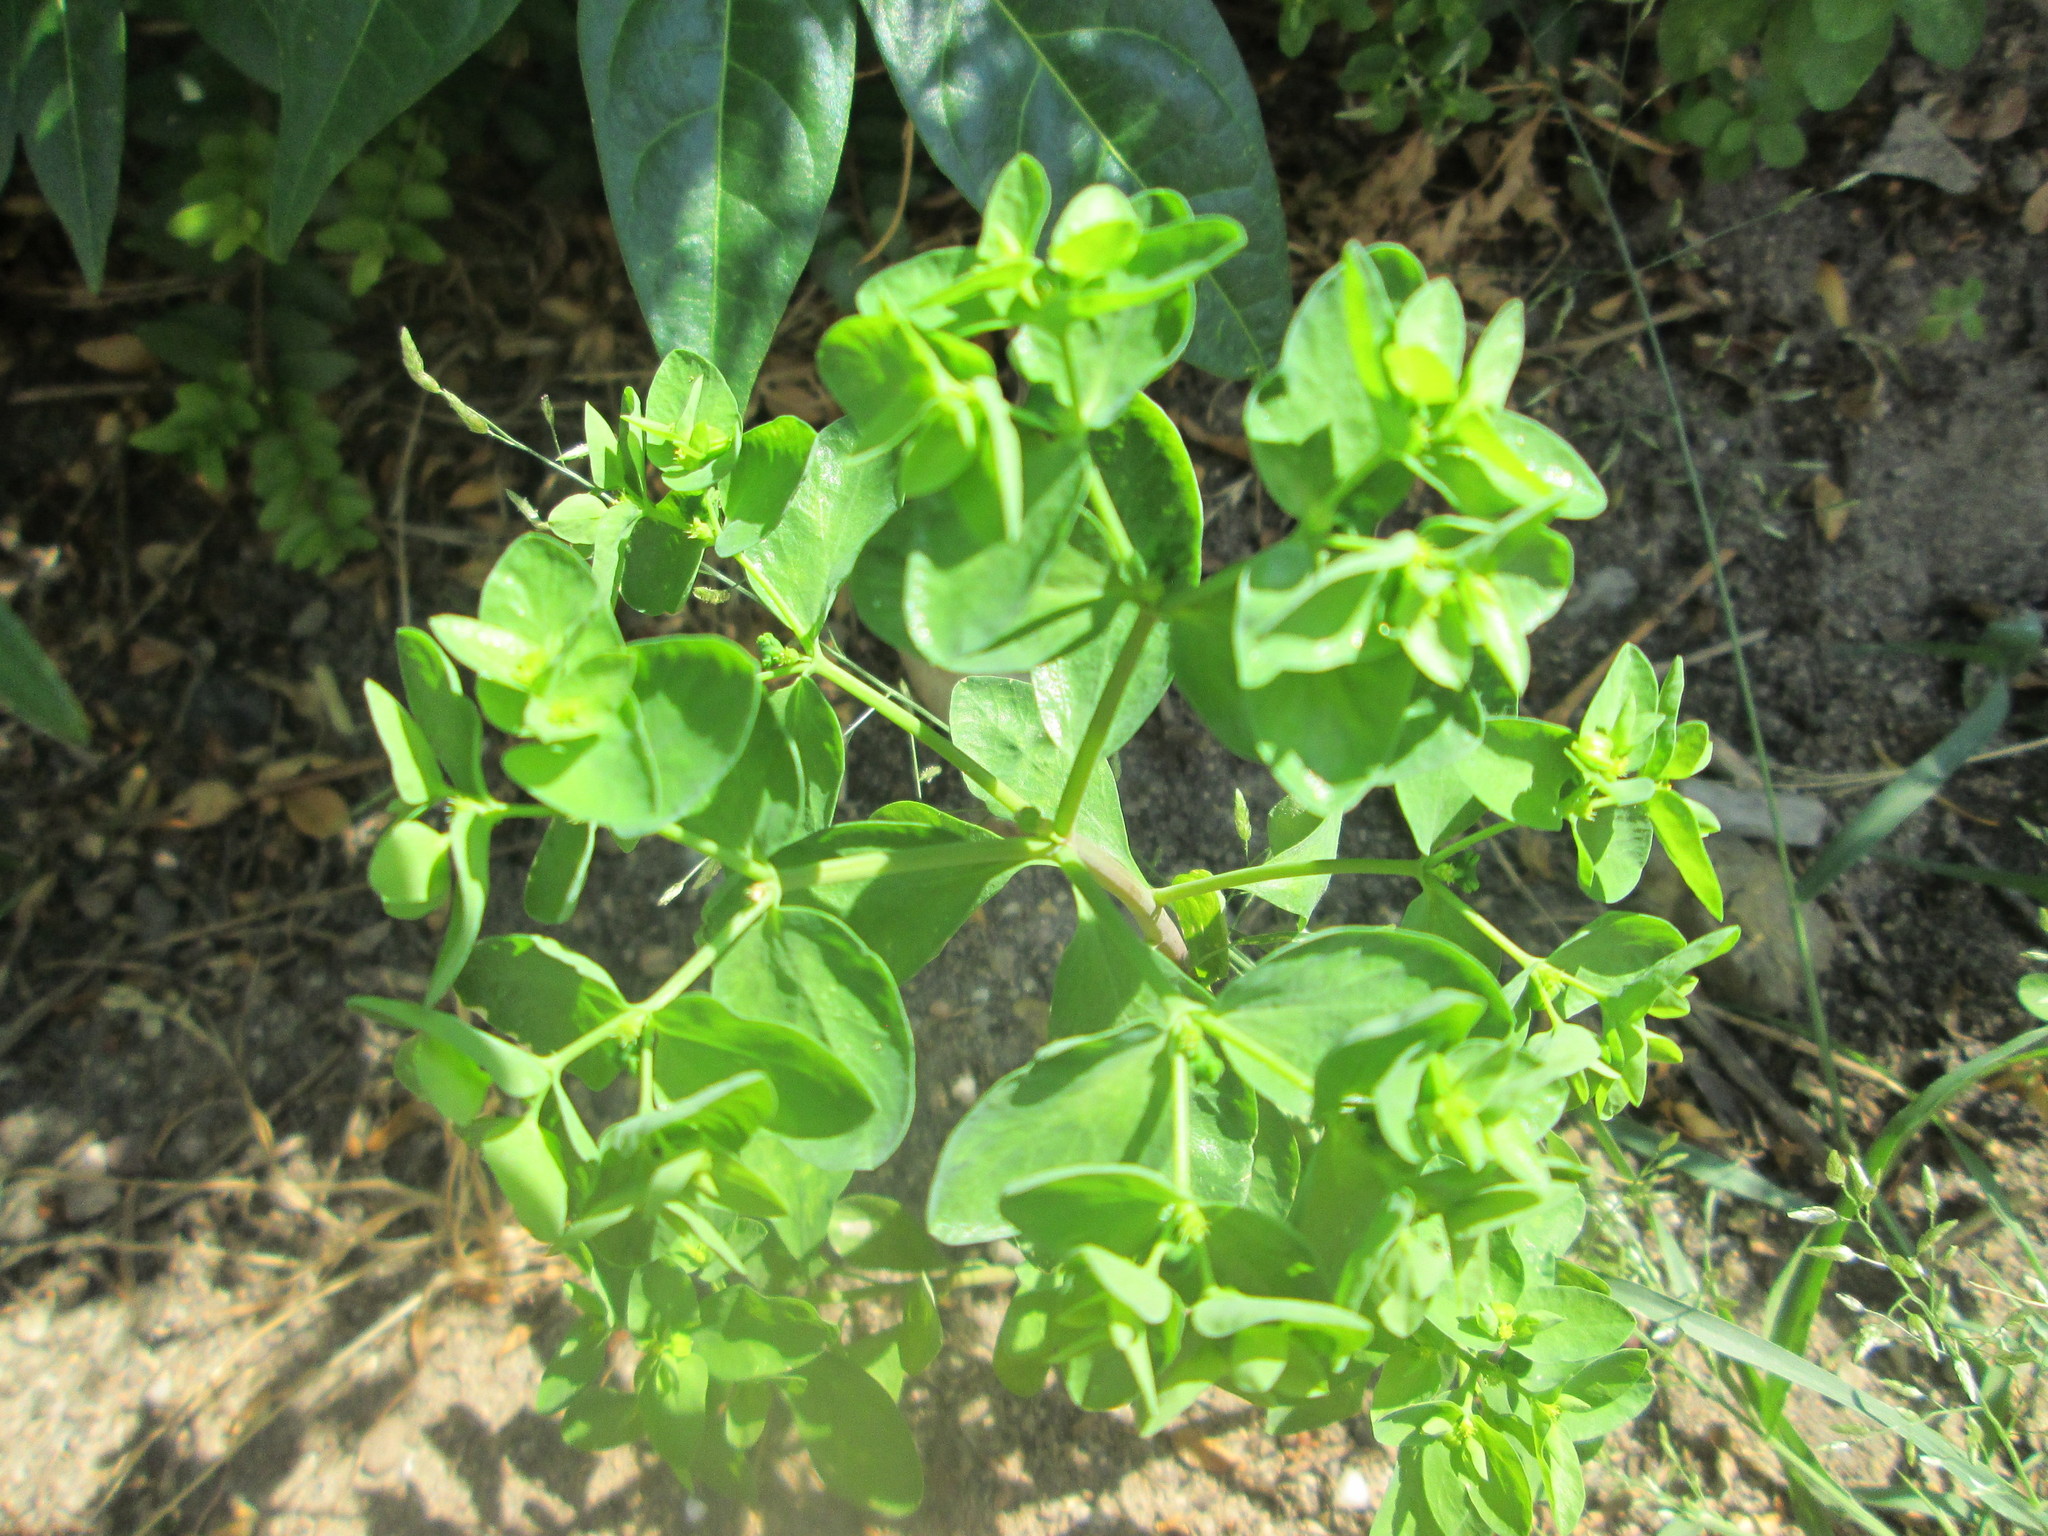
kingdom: Plantae
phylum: Tracheophyta
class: Magnoliopsida
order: Malpighiales
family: Euphorbiaceae
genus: Euphorbia
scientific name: Euphorbia peplus
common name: Petty spurge
